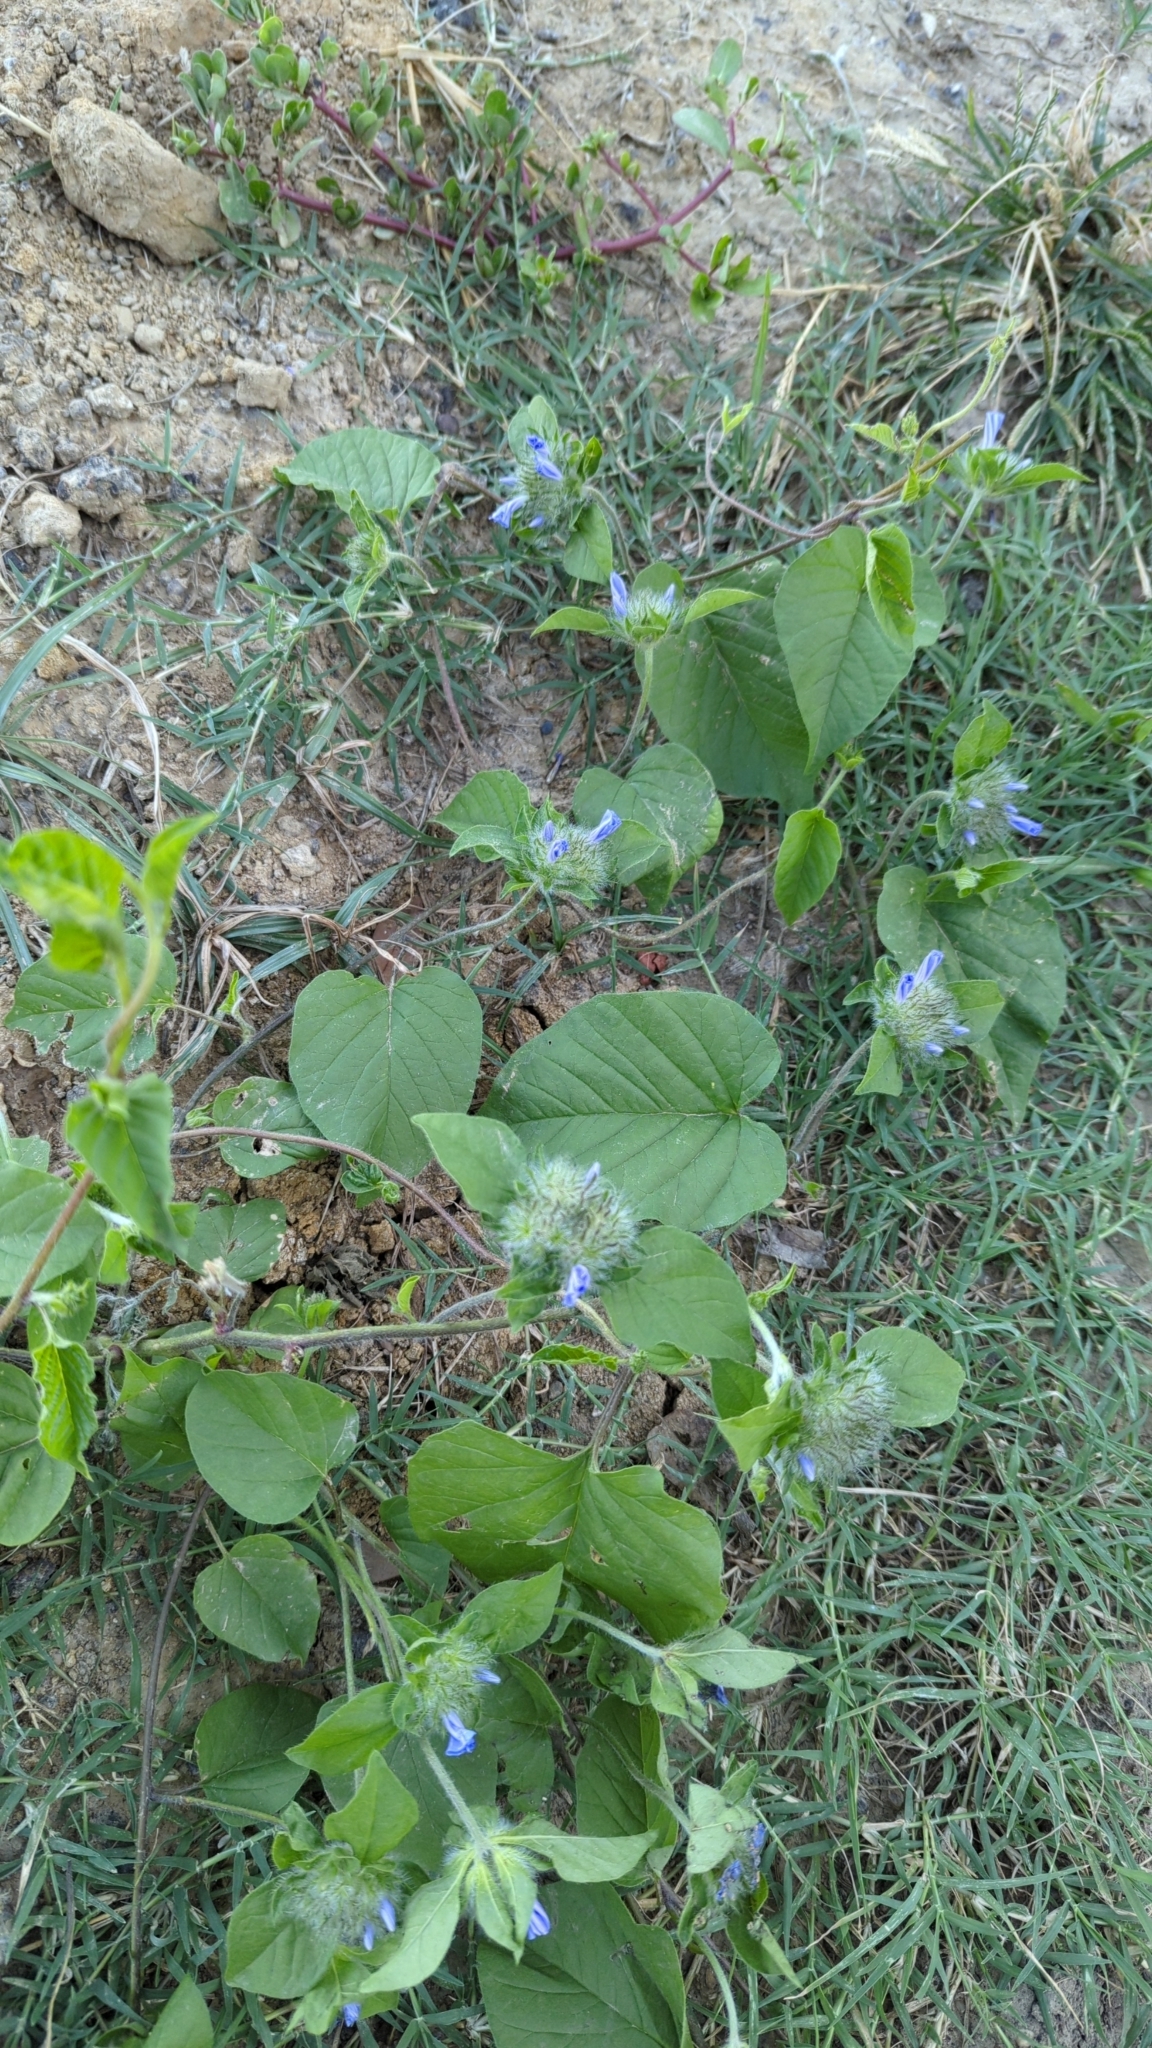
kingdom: Plantae
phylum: Tracheophyta
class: Magnoliopsida
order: Solanales
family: Convolvulaceae
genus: Jacquemontia
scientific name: Jacquemontia tamnifolia
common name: Hairy clustervine
